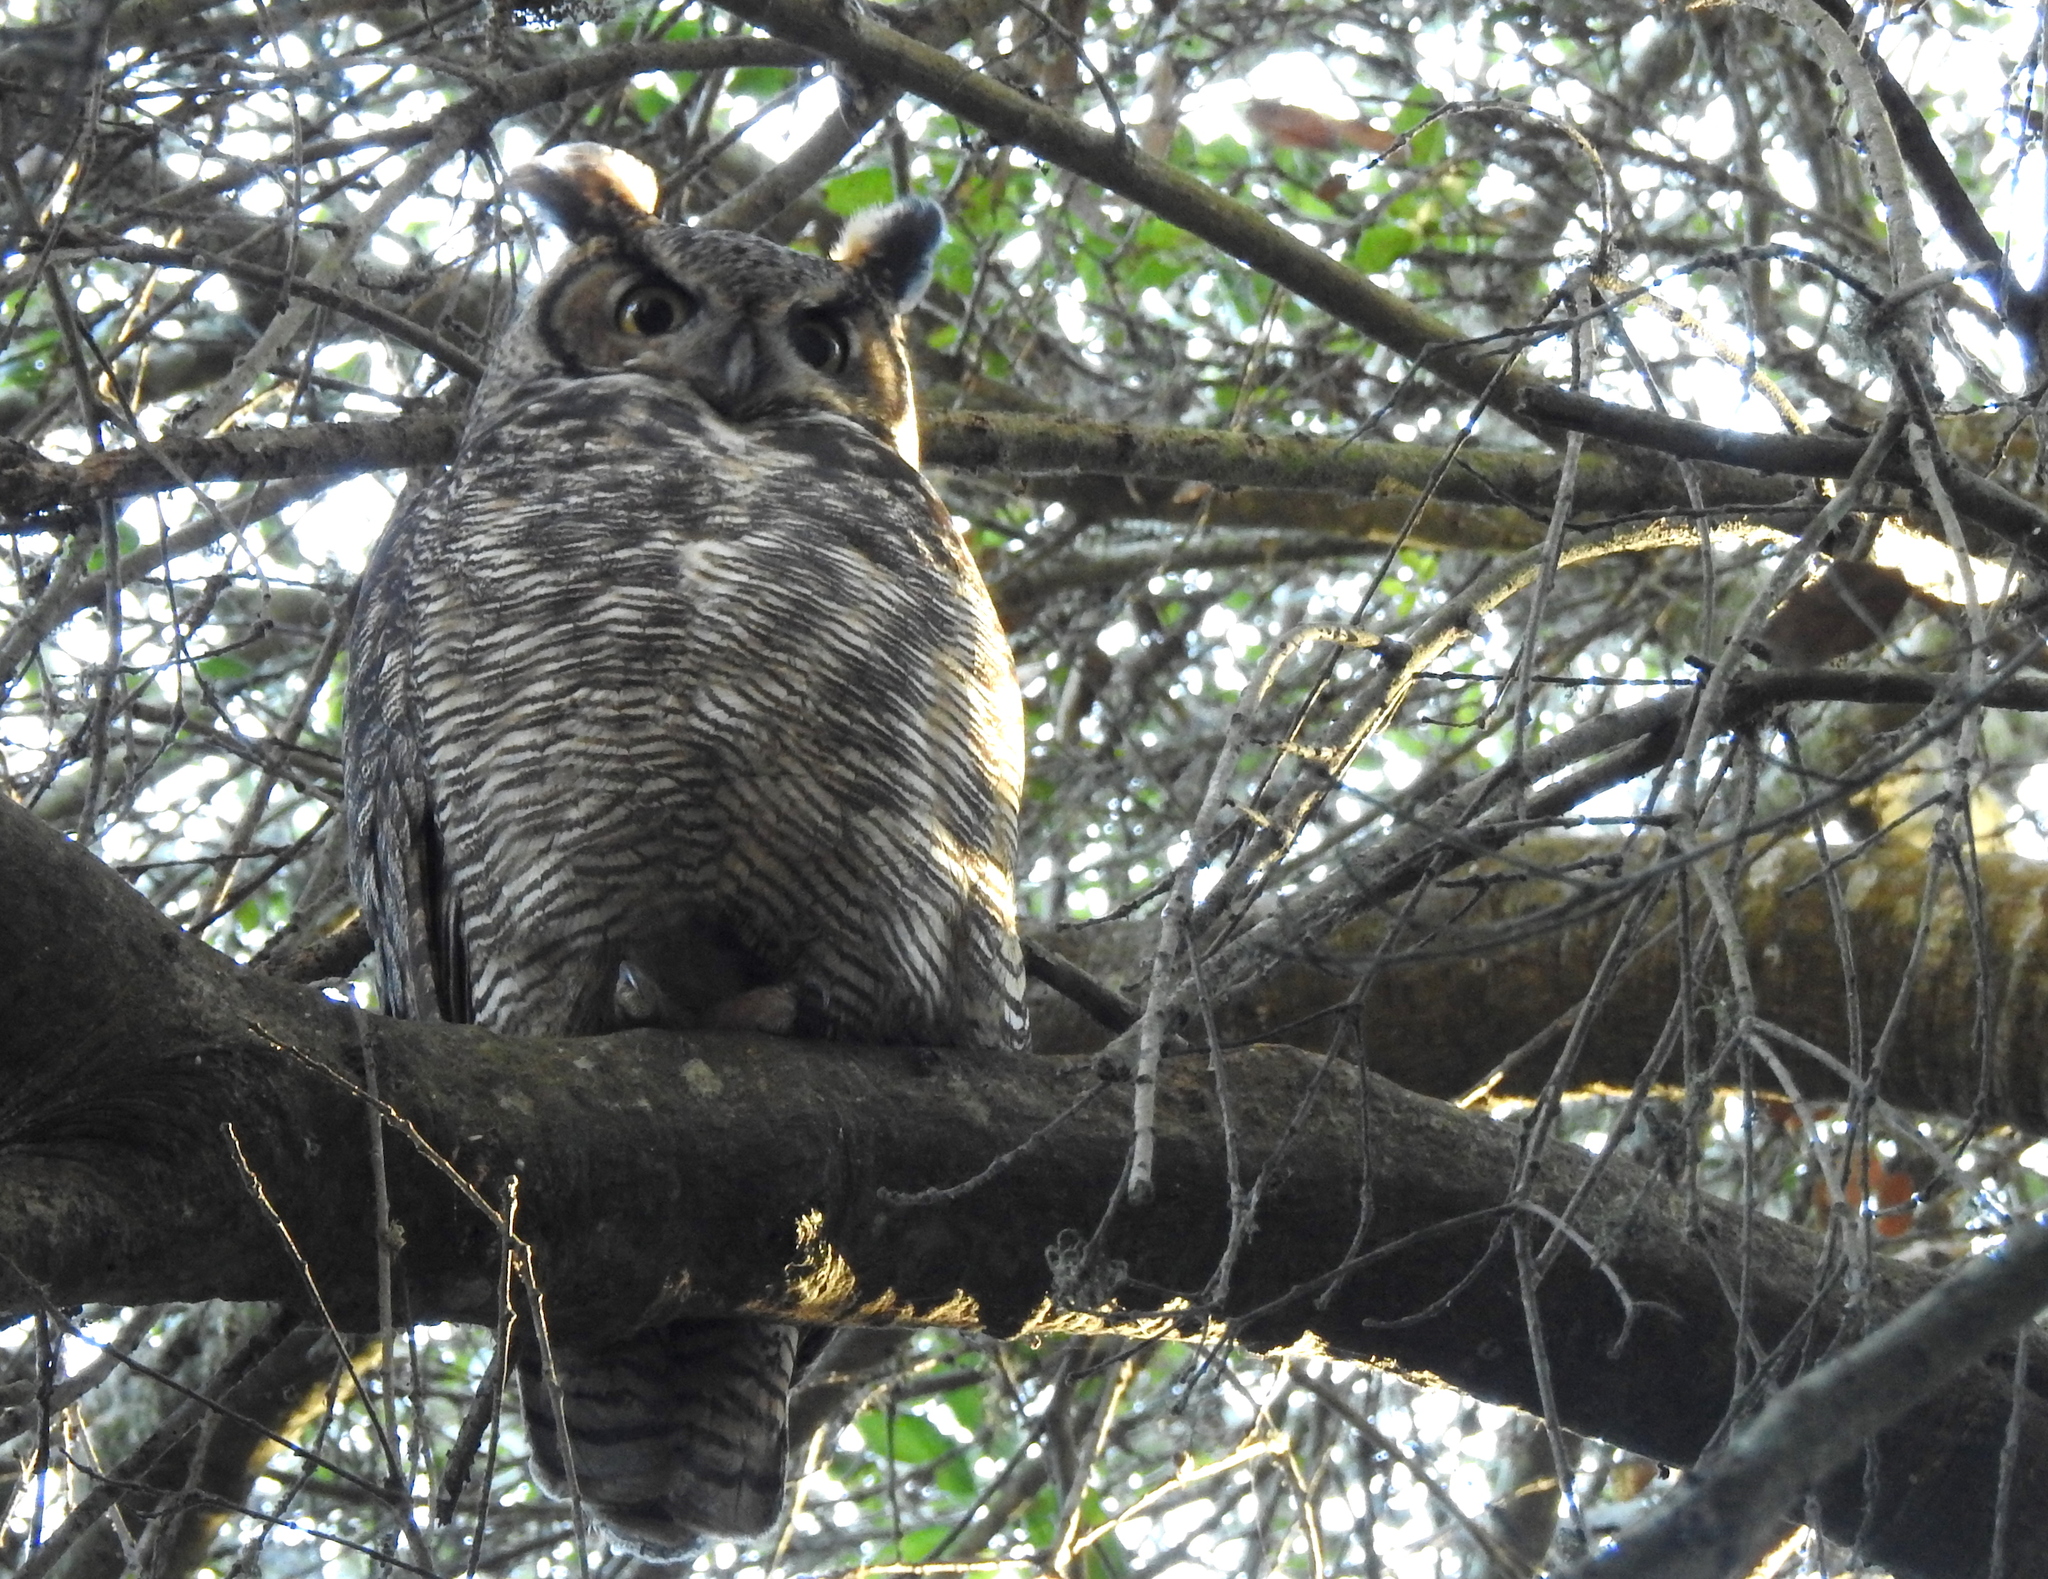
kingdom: Animalia
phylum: Chordata
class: Aves
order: Strigiformes
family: Strigidae
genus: Bubo
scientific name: Bubo virginianus
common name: Great horned owl
